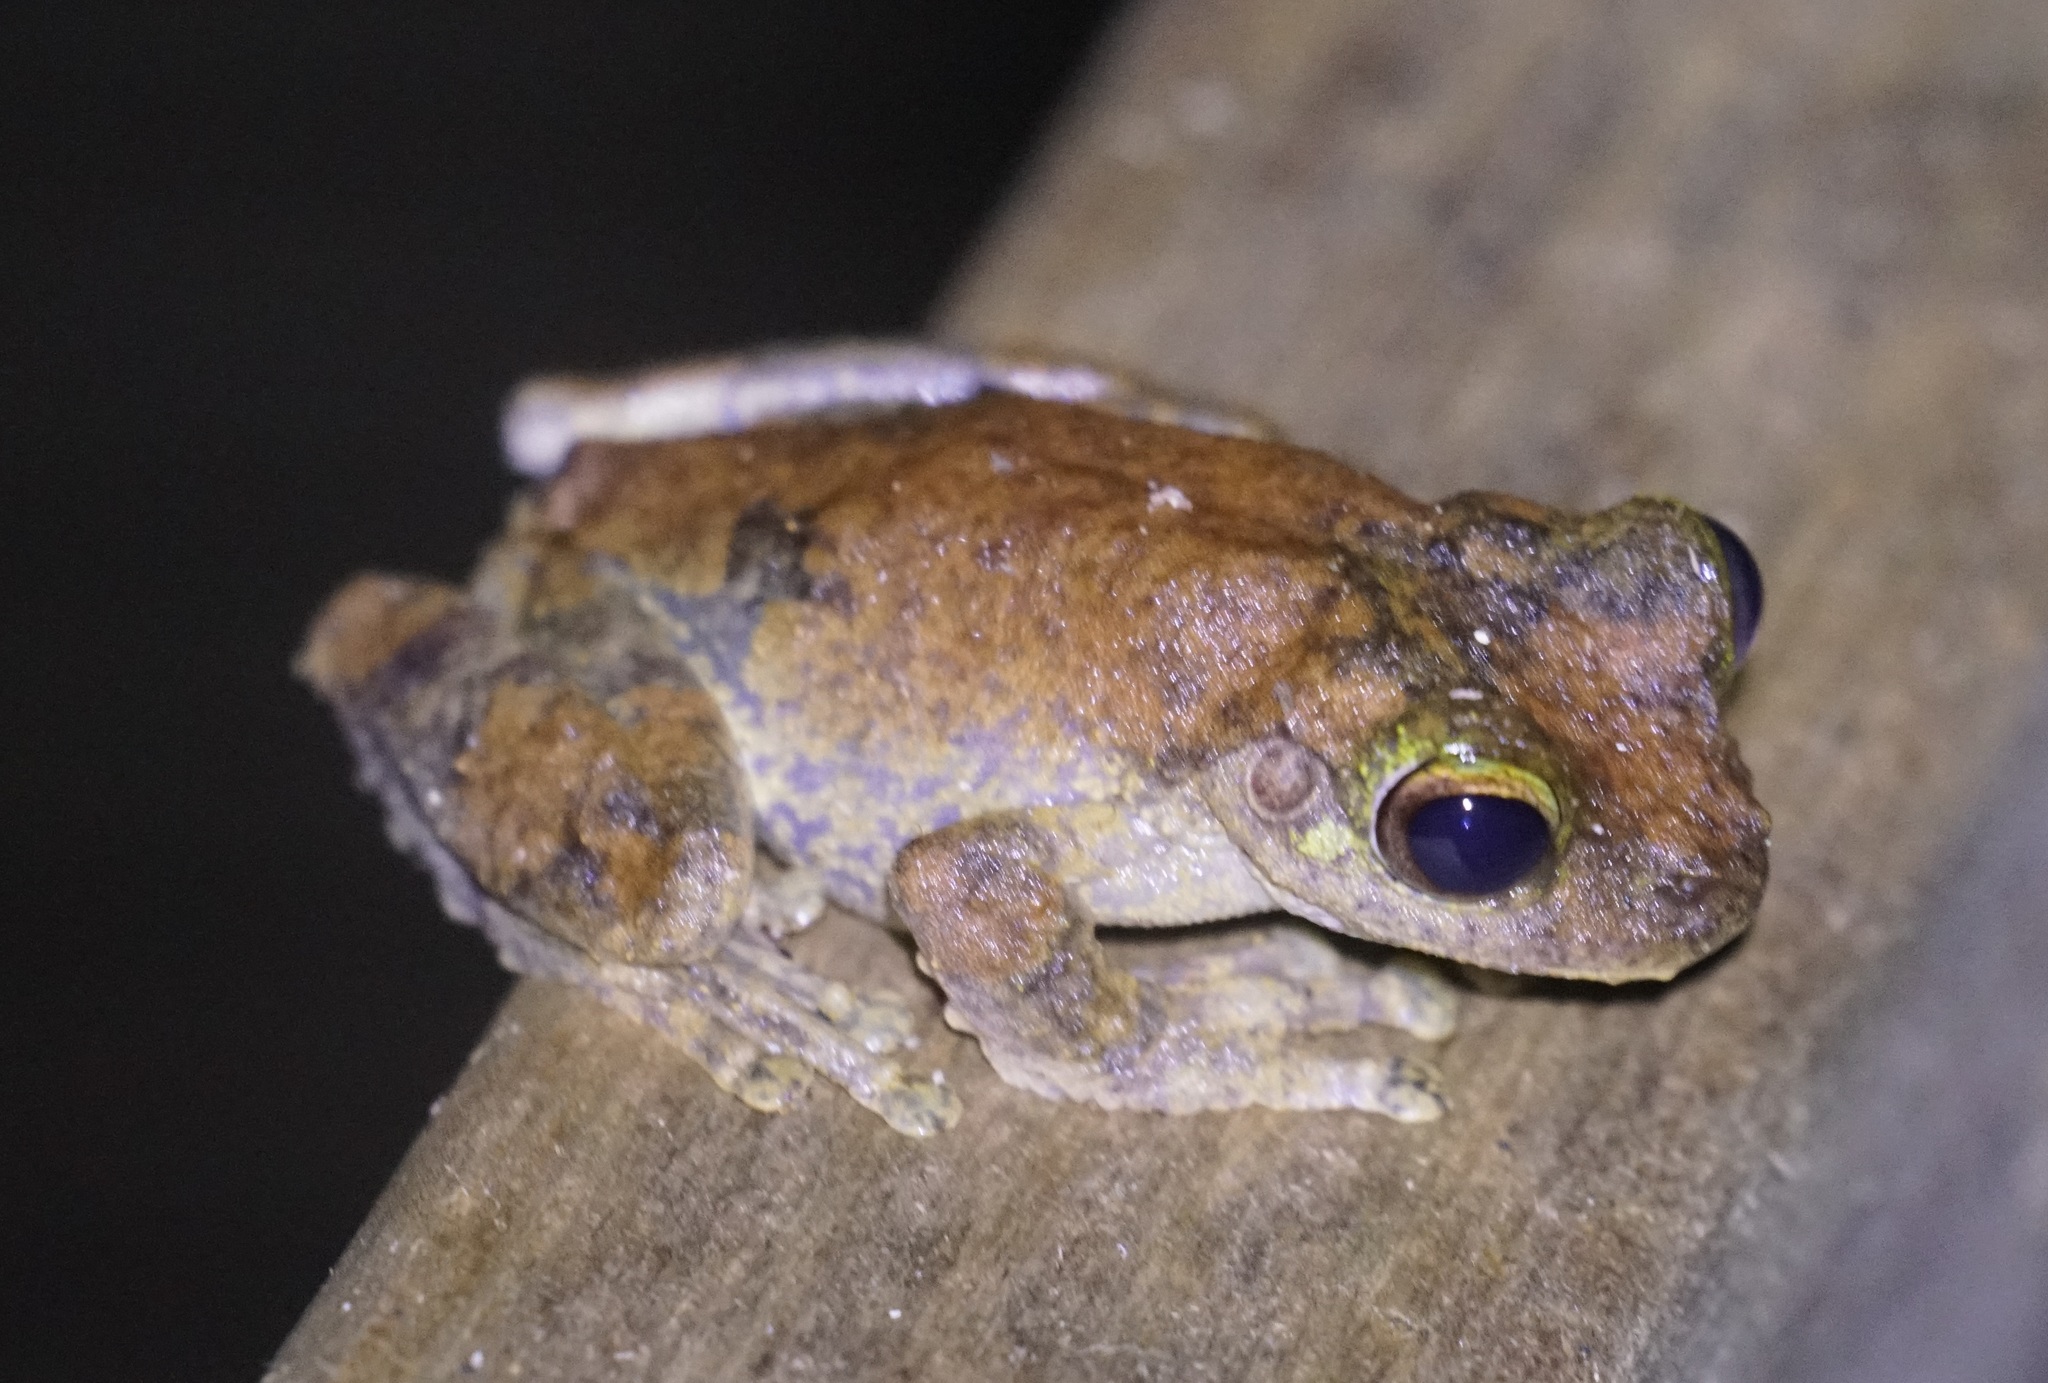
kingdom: Animalia
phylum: Chordata
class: Amphibia
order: Anura
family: Pelodryadidae
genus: Ranoidea
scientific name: Ranoidea serrata
